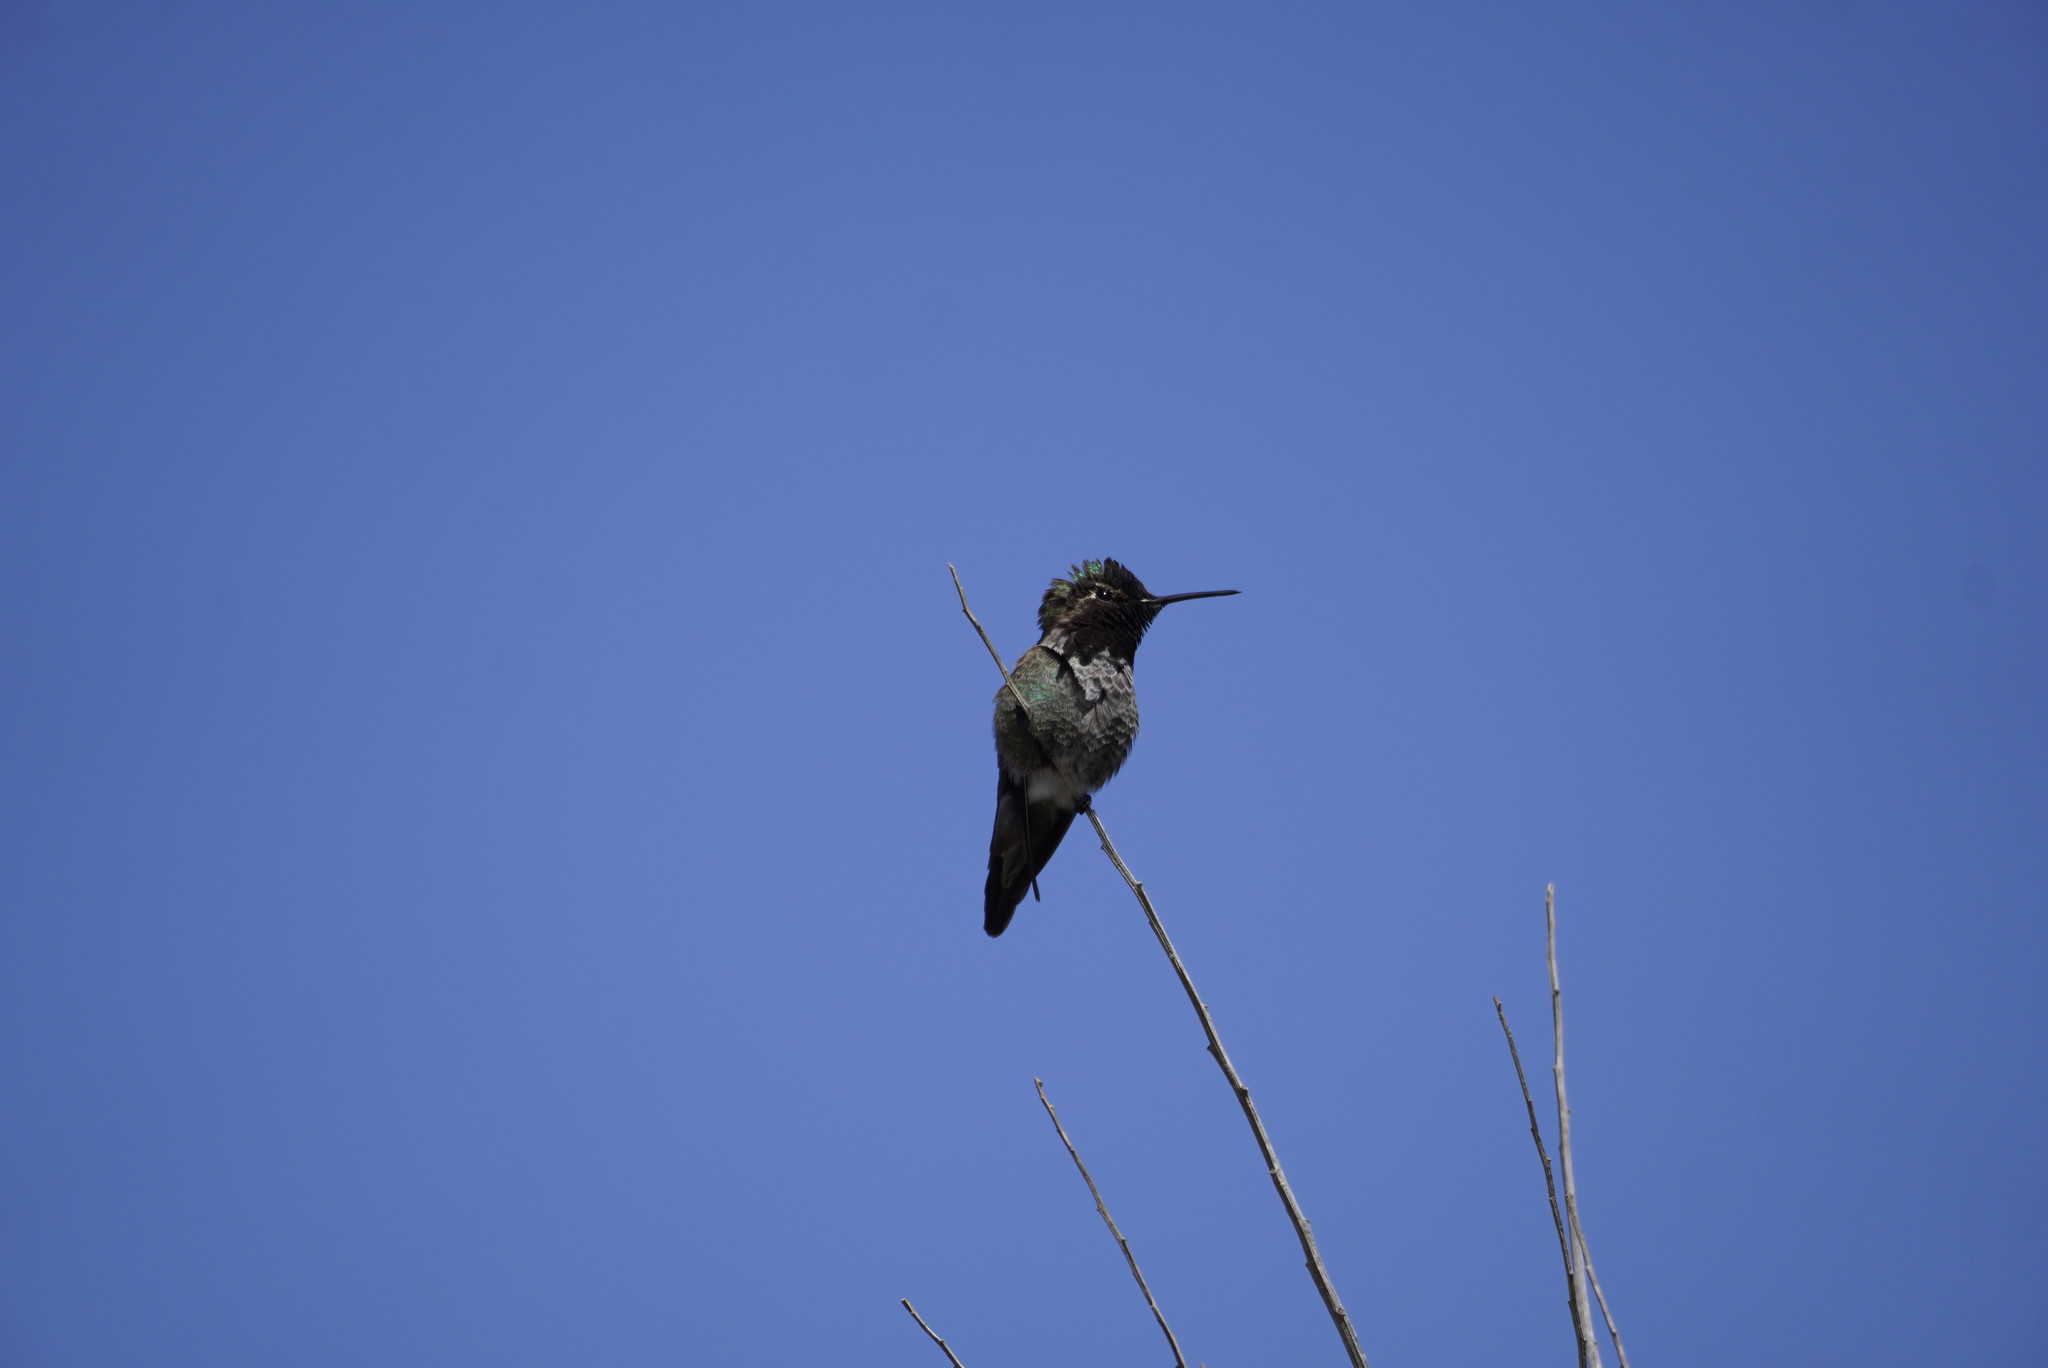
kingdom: Animalia
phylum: Chordata
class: Aves
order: Apodiformes
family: Trochilidae
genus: Calypte
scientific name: Calypte anna
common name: Anna's hummingbird
